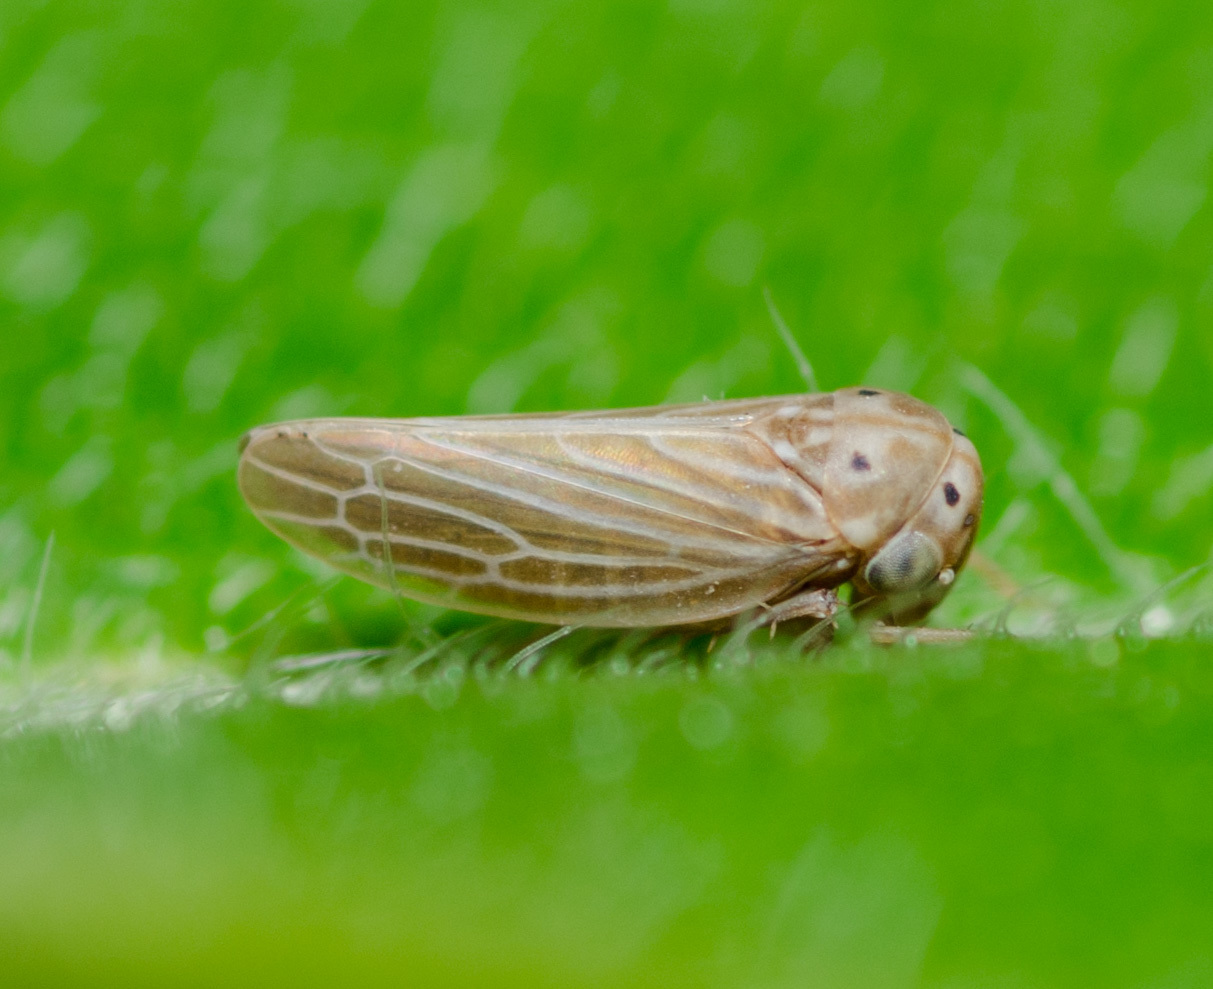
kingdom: Animalia
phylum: Arthropoda
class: Insecta
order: Hemiptera
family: Cicadellidae
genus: Agallia
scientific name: Agallia constricta
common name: The constricted leafhopper
